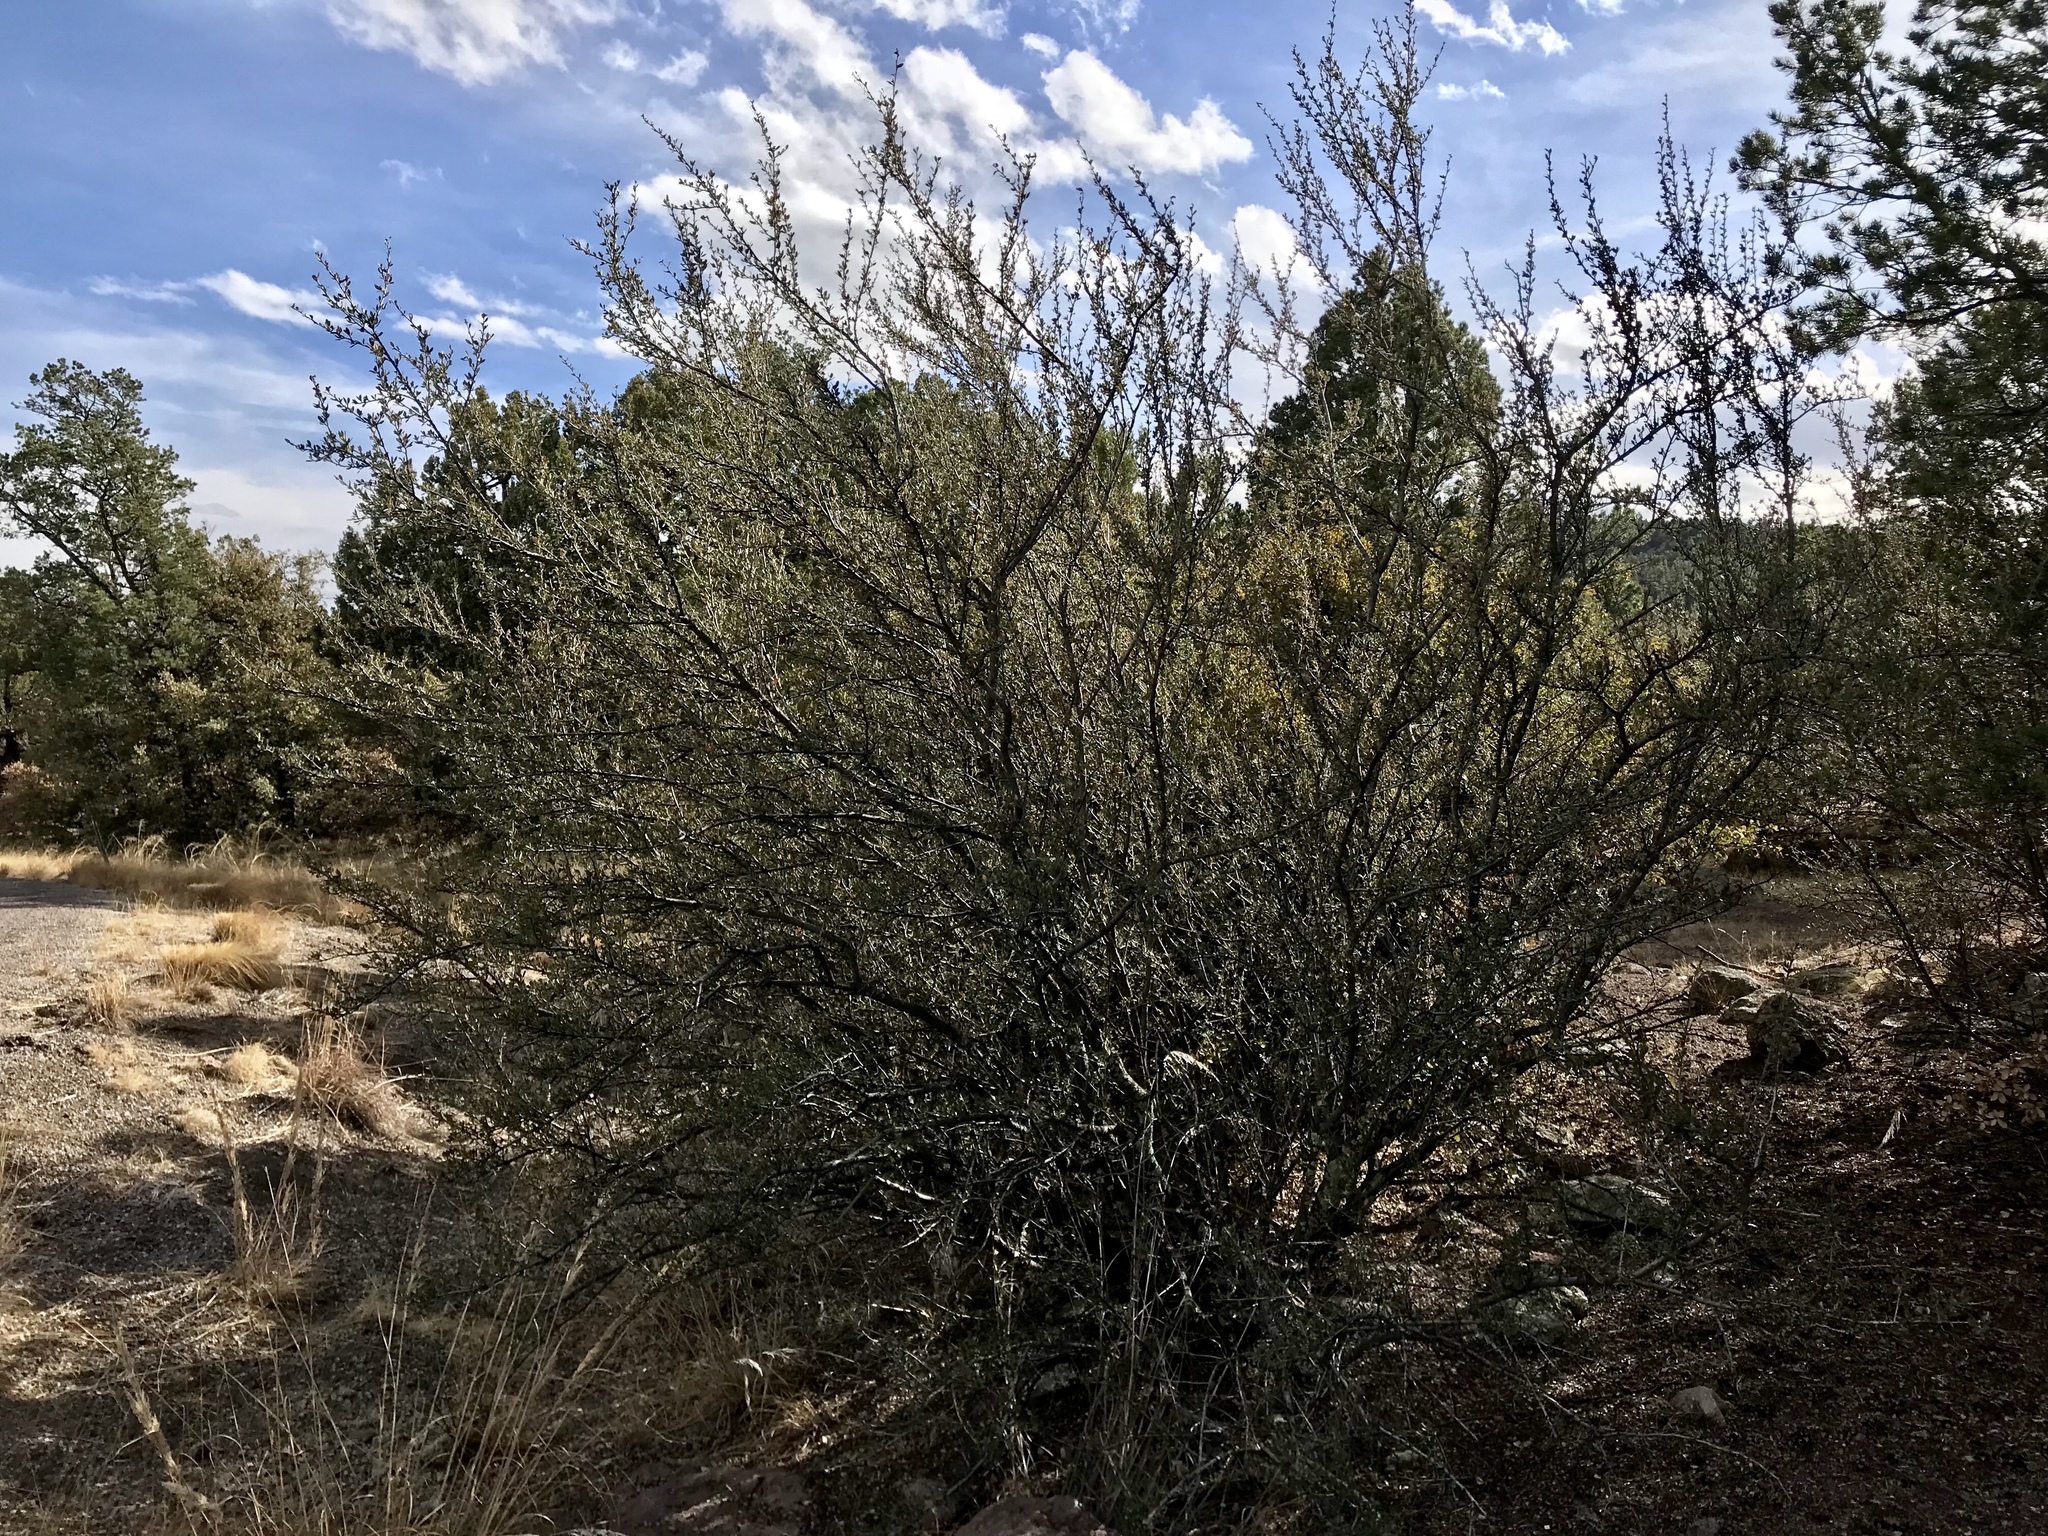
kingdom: Plantae
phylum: Tracheophyta
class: Magnoliopsida
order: Rosales
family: Rosaceae
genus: Cercocarpus
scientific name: Cercocarpus breviflorus
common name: Wright's mountain-mahogany
